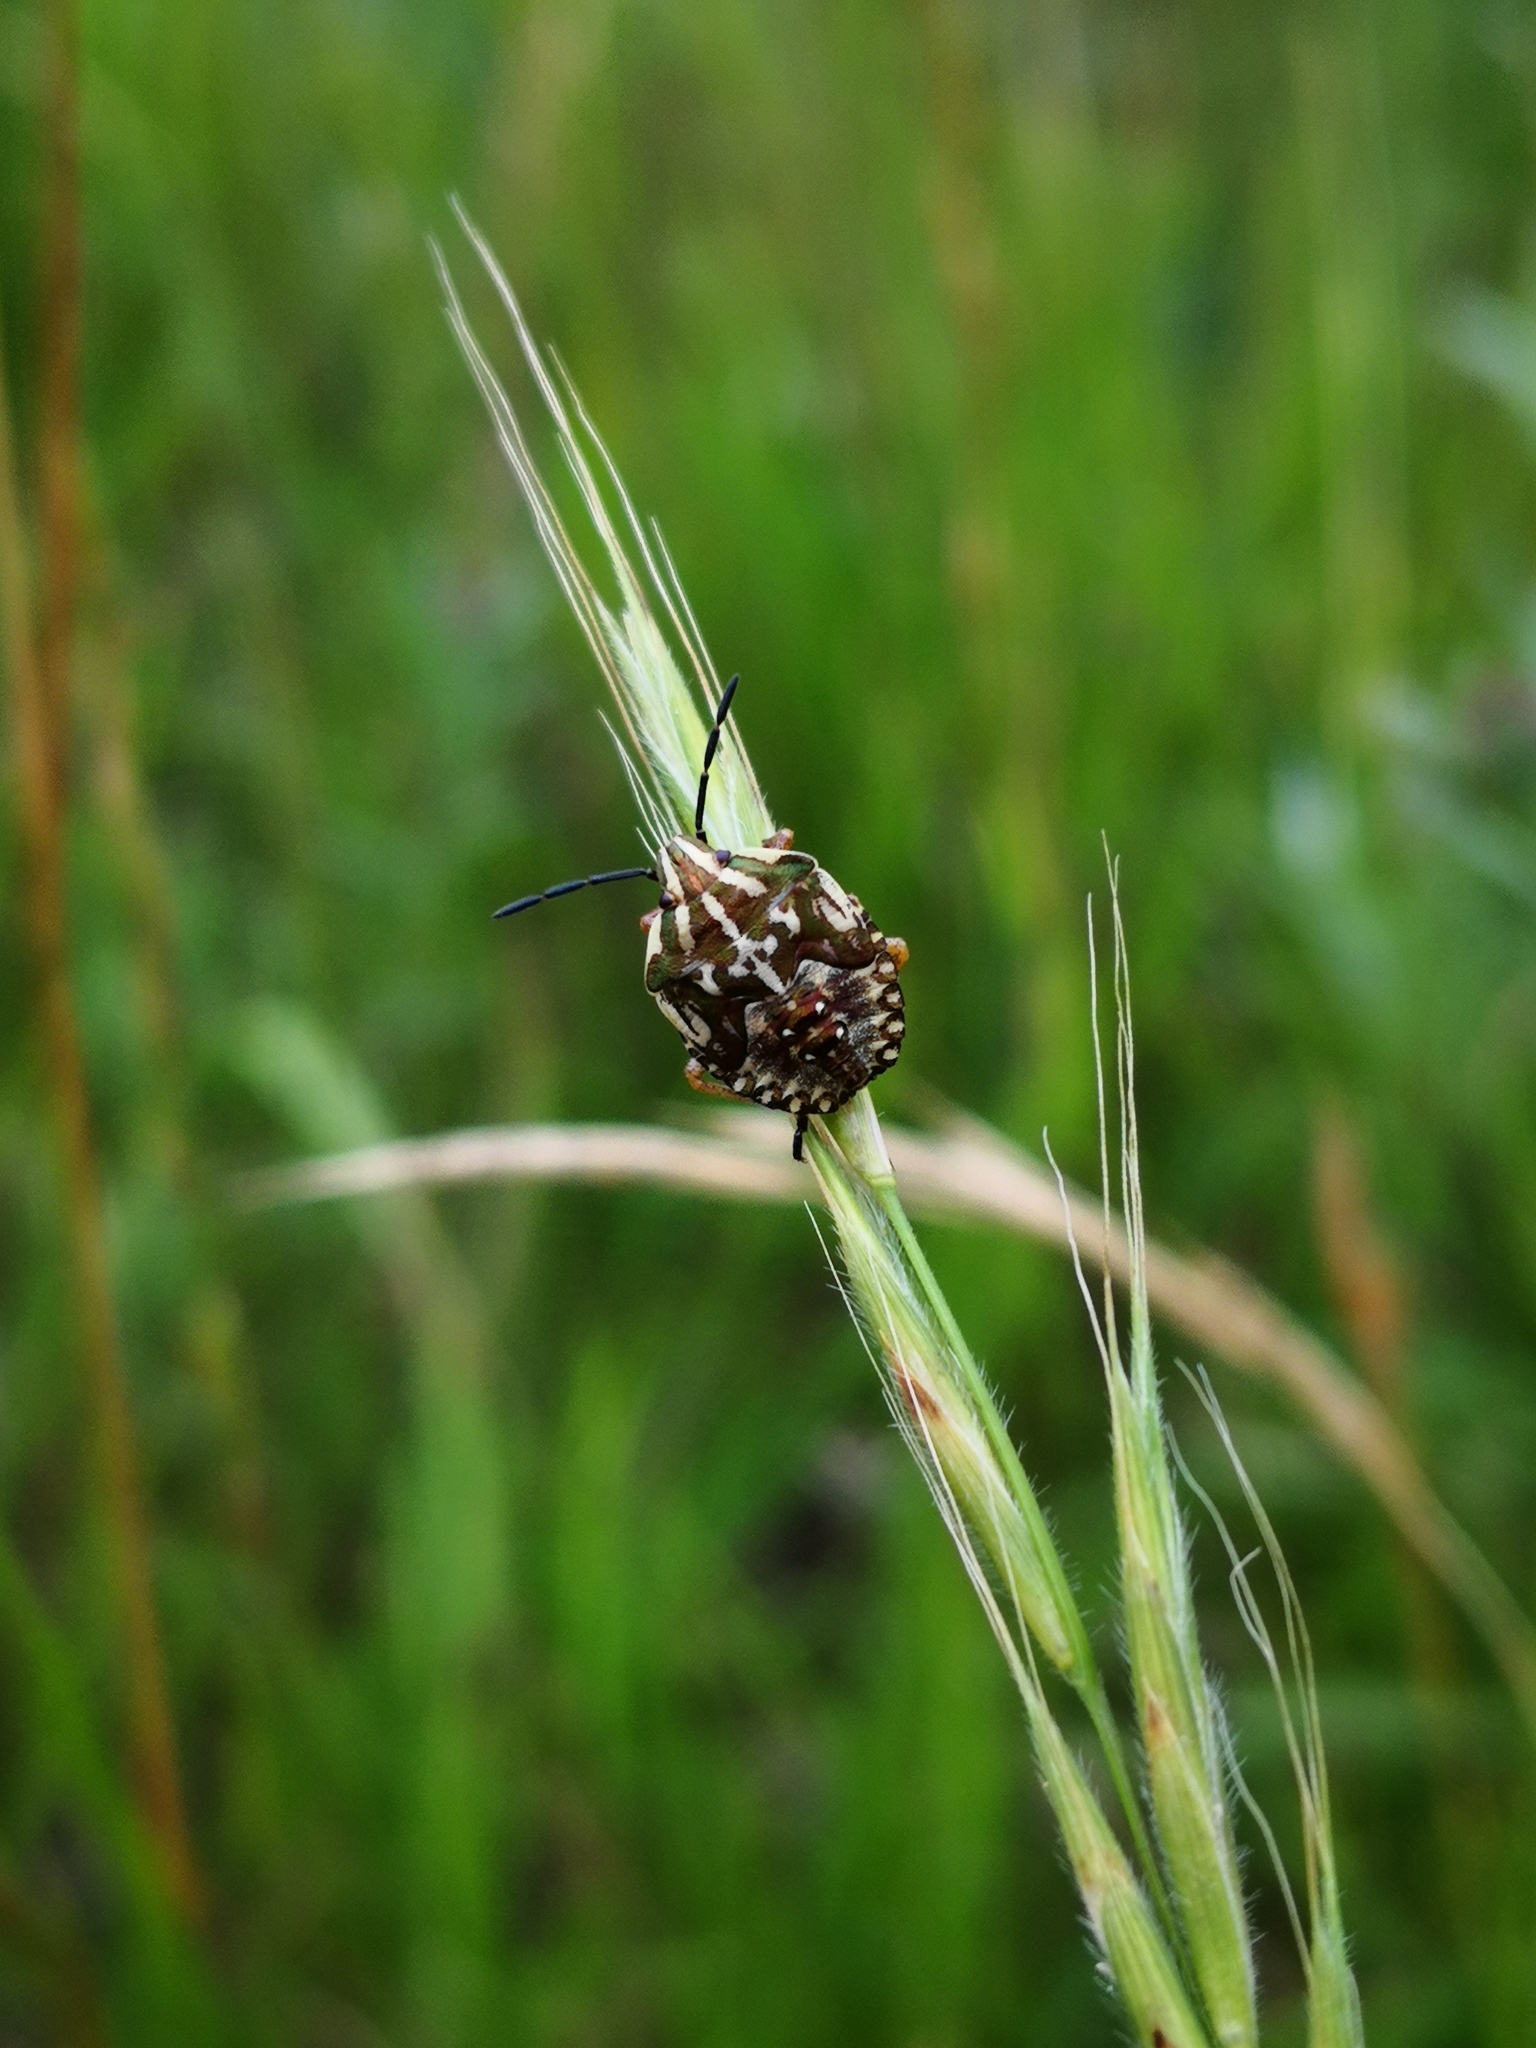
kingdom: Animalia
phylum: Arthropoda
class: Insecta
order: Hemiptera
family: Pentatomidae
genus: Carpocoris
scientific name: Carpocoris purpureipennis
